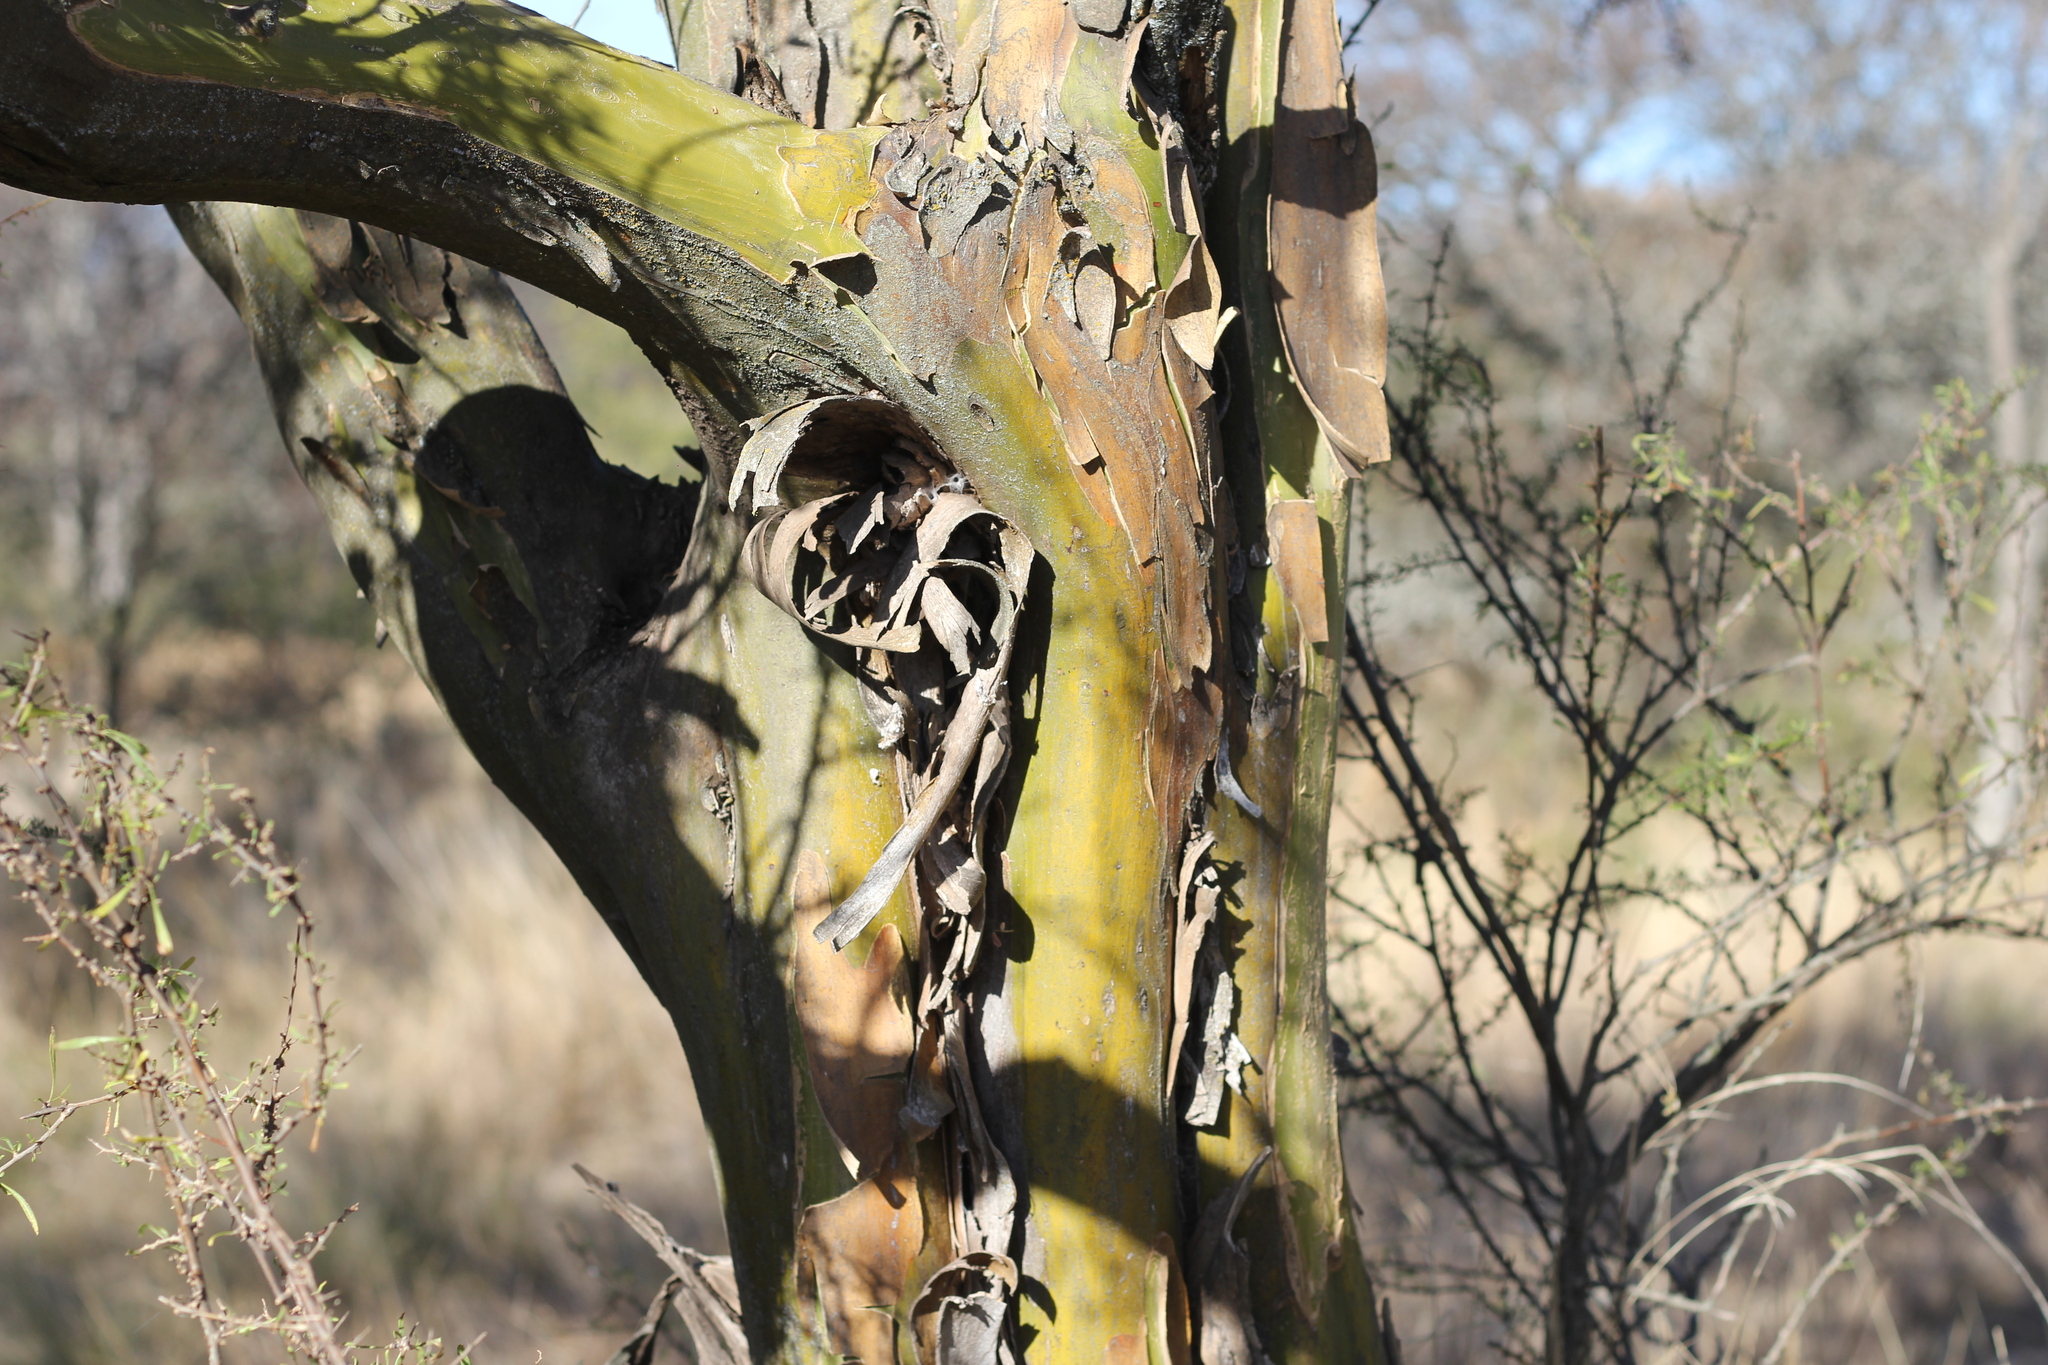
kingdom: Plantae
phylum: Tracheophyta
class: Magnoliopsida
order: Fabales
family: Fabaceae
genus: Geoffroea
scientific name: Geoffroea decorticans
